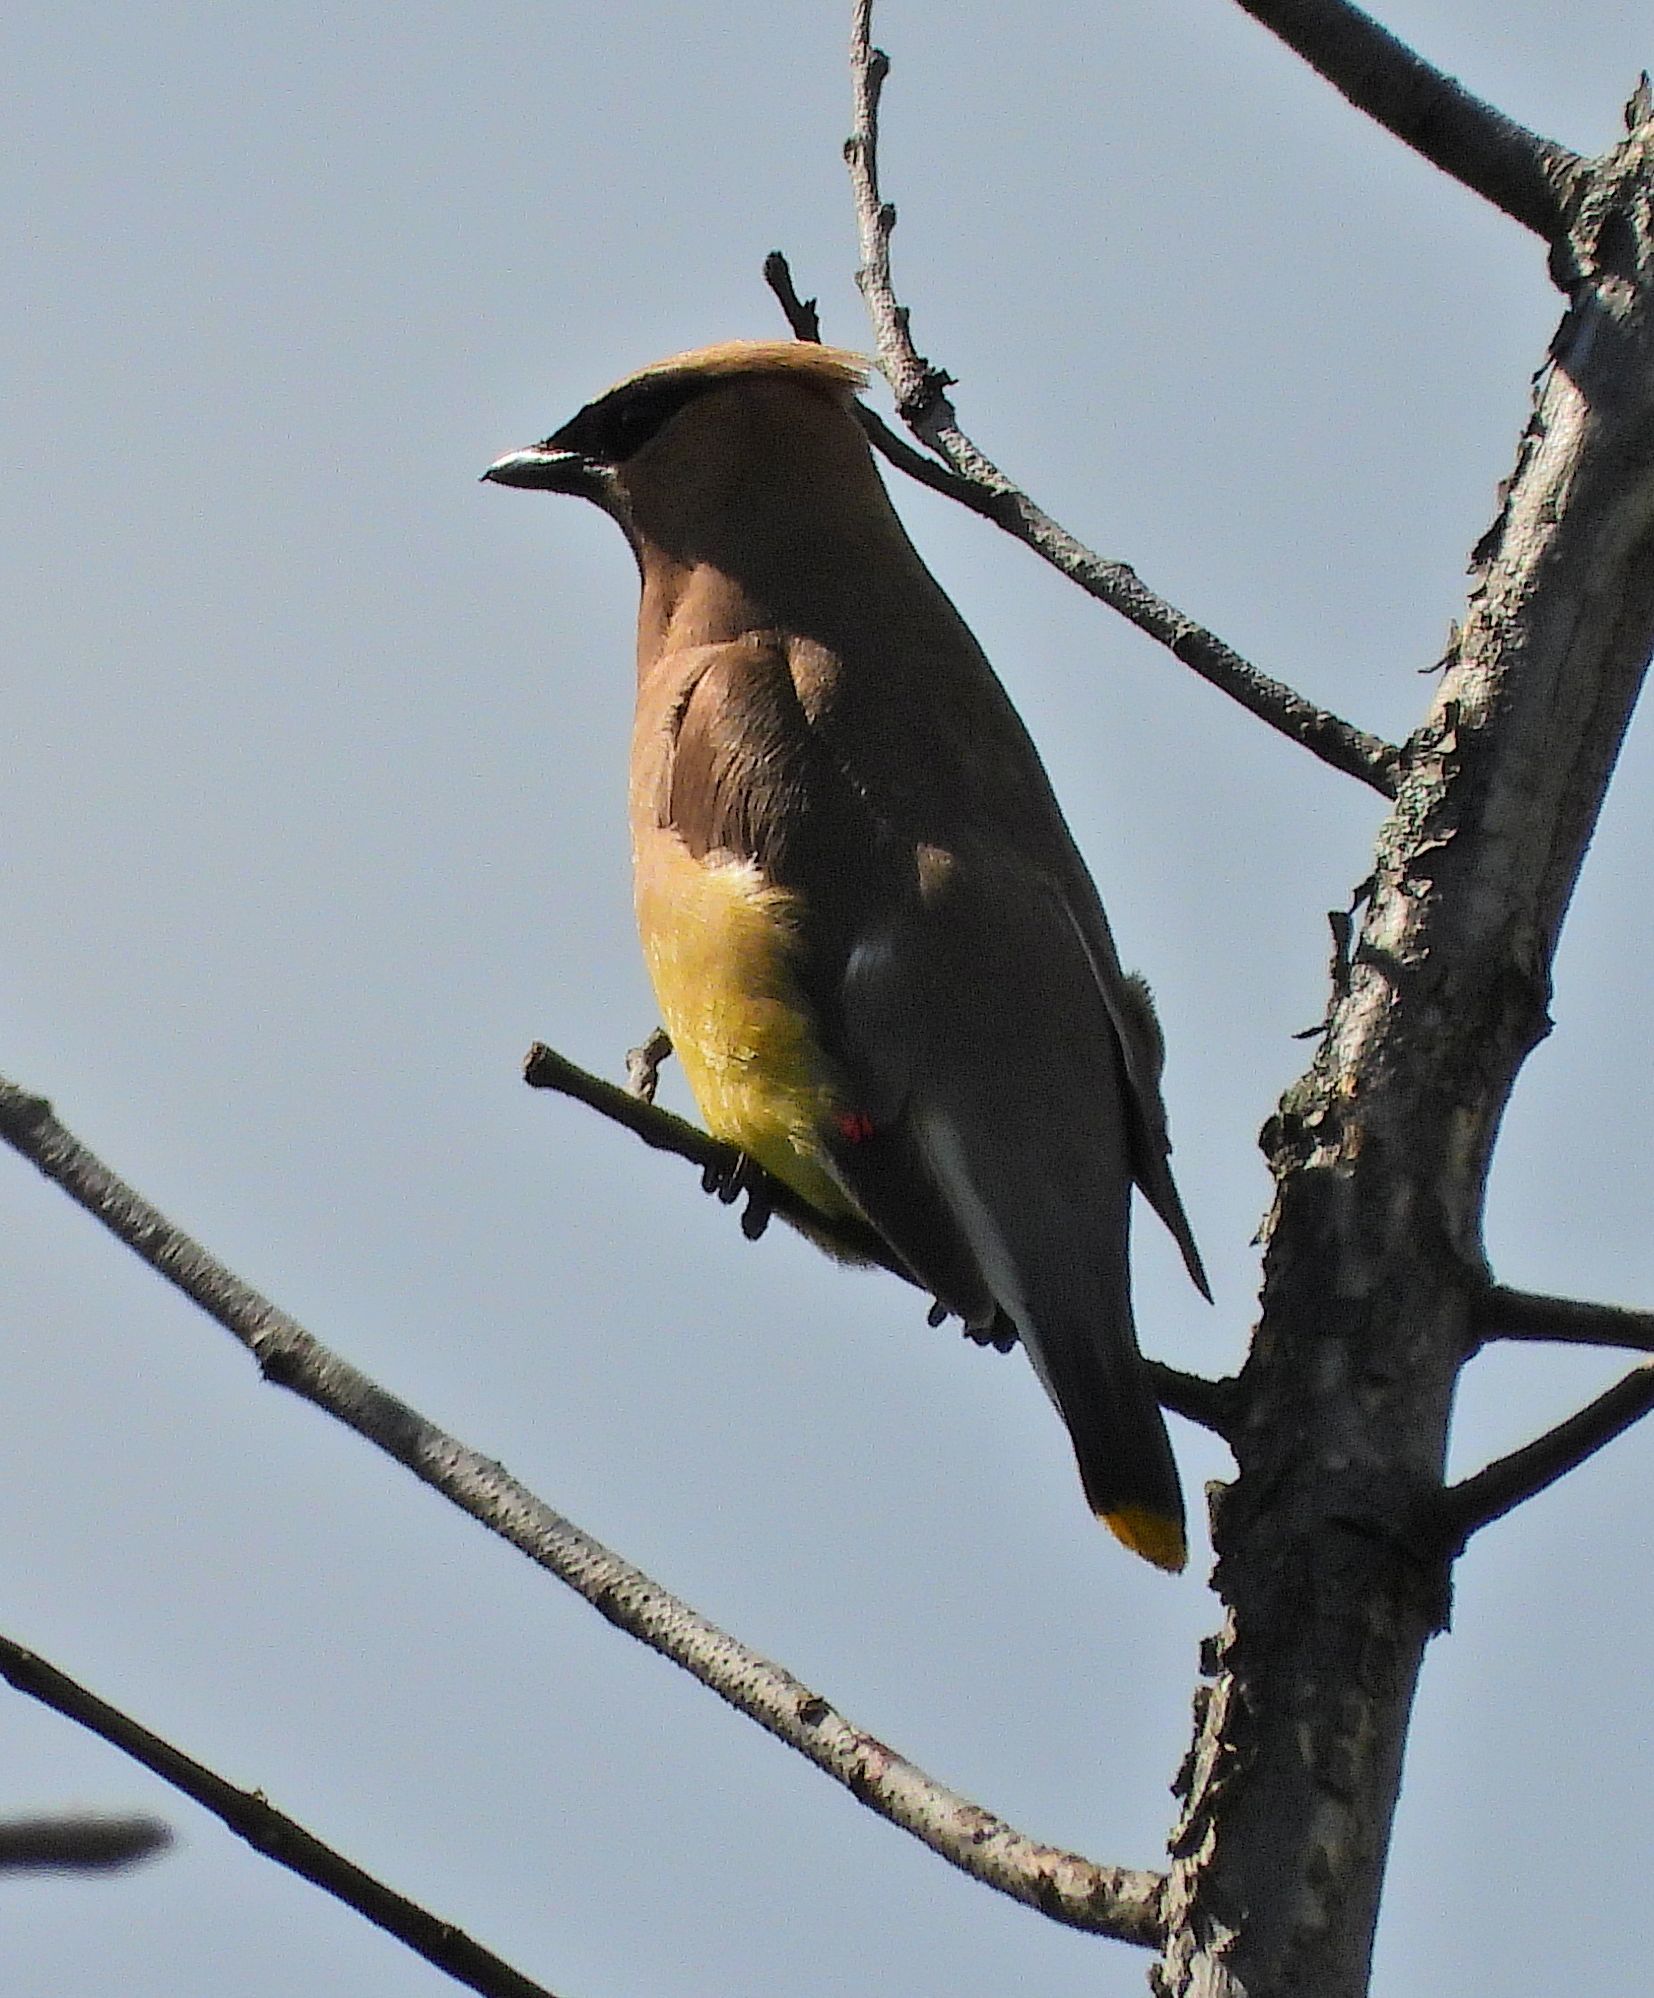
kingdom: Animalia
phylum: Chordata
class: Aves
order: Passeriformes
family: Bombycillidae
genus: Bombycilla
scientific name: Bombycilla cedrorum
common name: Cedar waxwing
